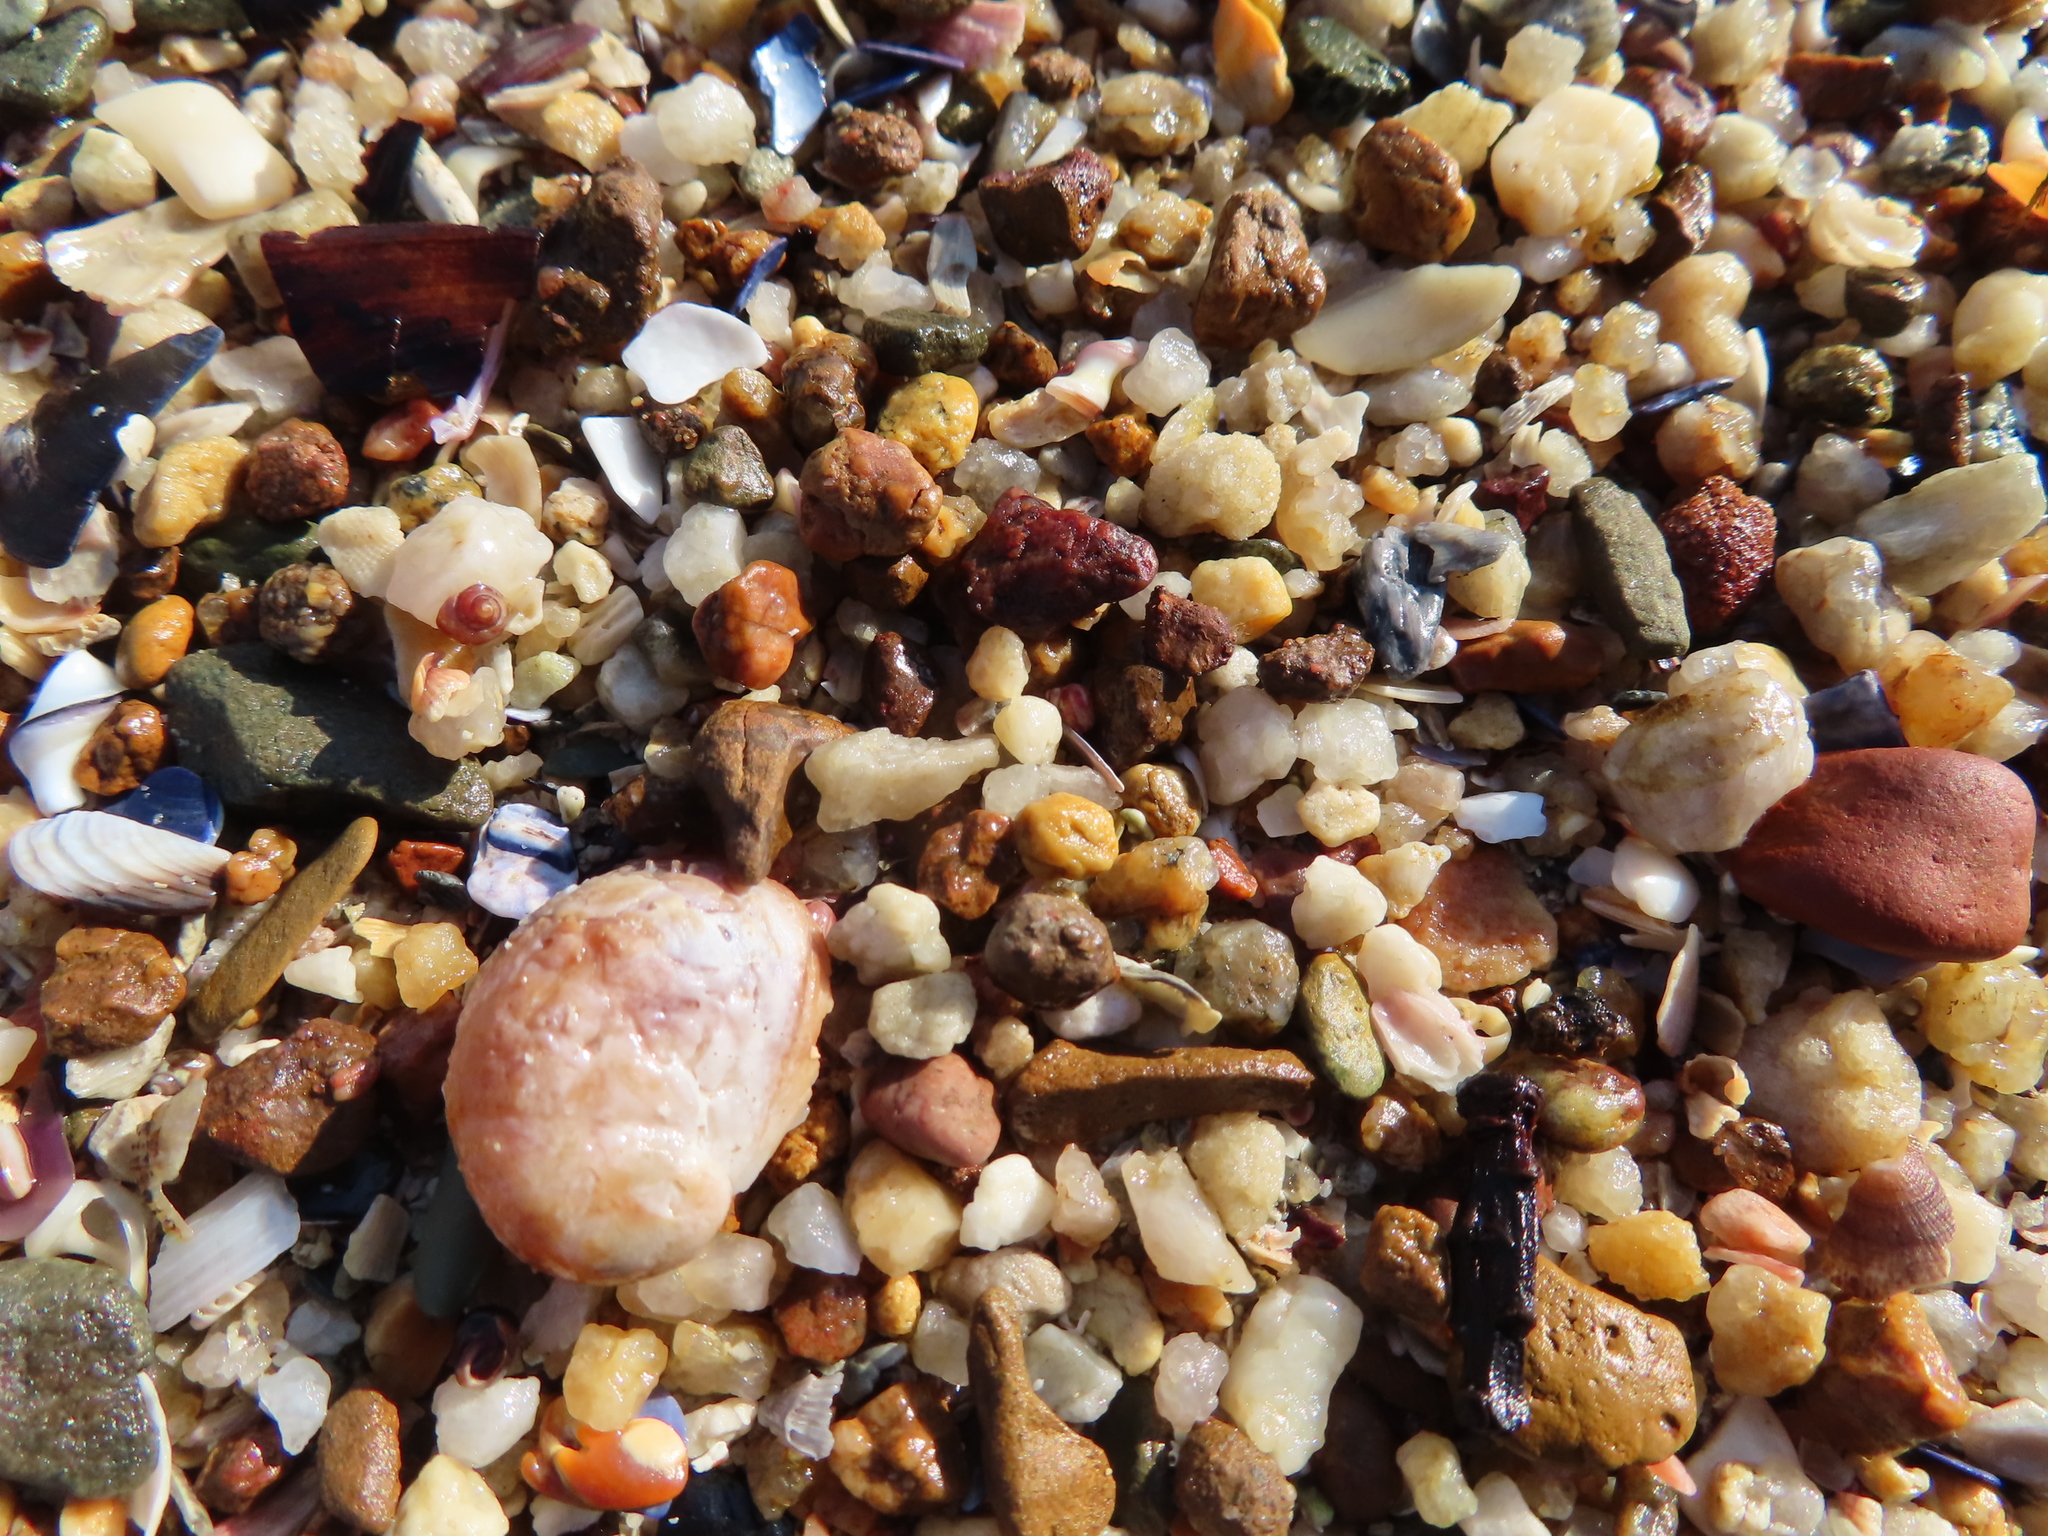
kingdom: Animalia
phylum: Mollusca
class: Gastropoda
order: Littorinimorpha
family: Calyptraeidae
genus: Crepipatella
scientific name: Crepipatella capensis
